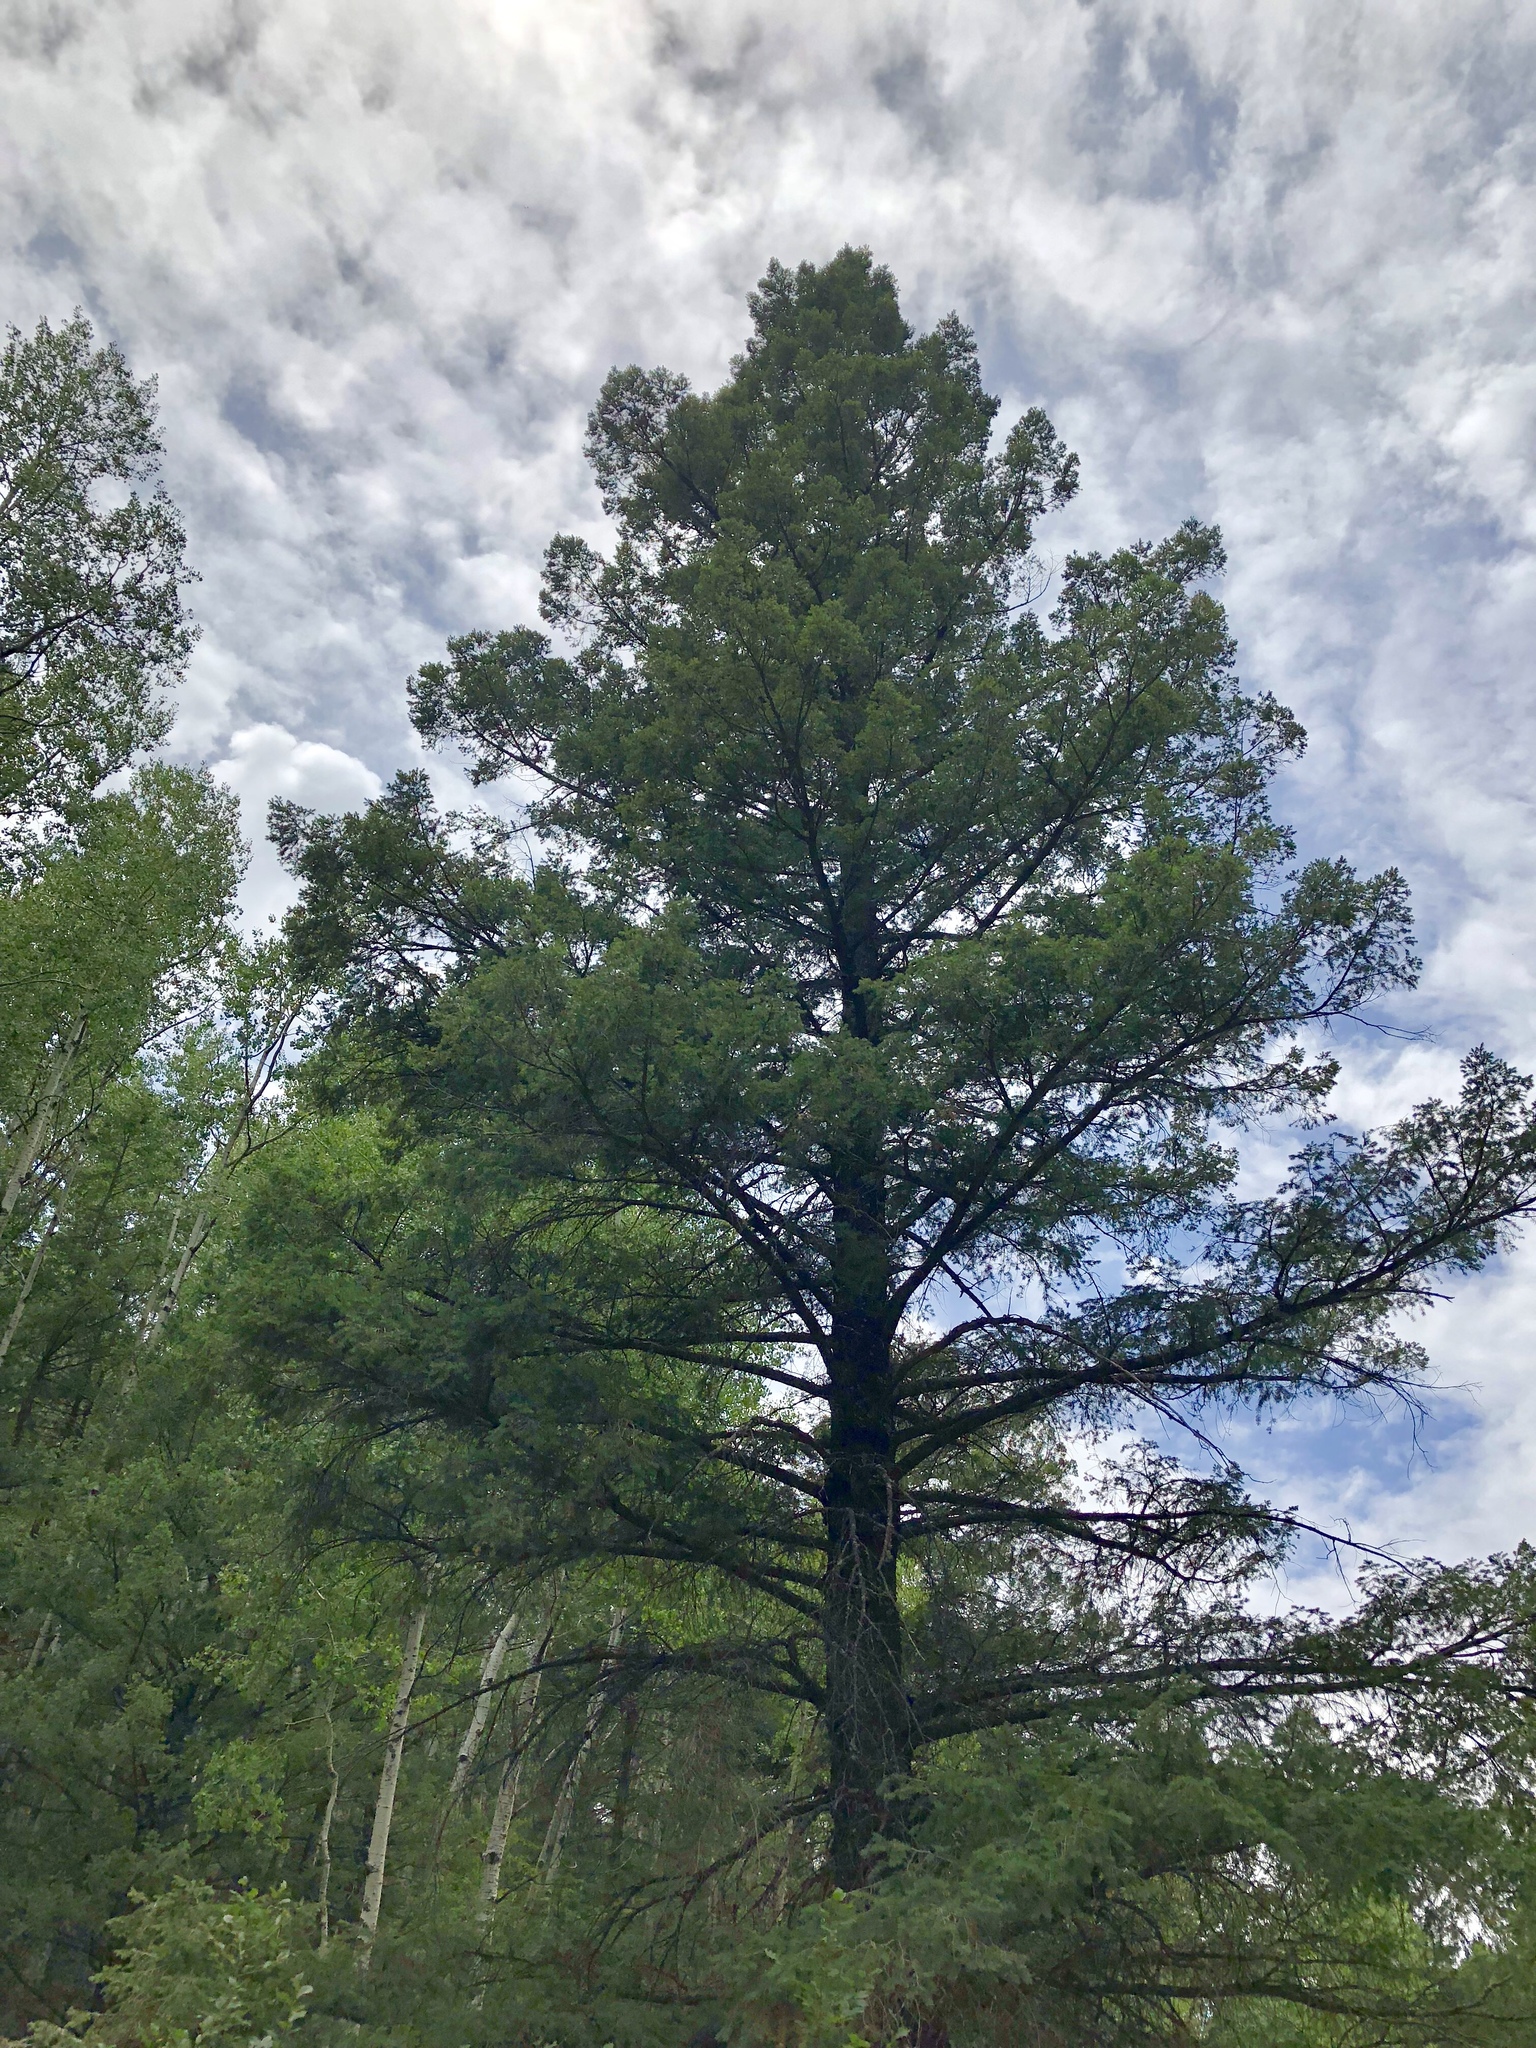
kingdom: Plantae
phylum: Tracheophyta
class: Pinopsida
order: Pinales
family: Pinaceae
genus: Pseudotsuga
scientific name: Pseudotsuga menziesii
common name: Douglas fir
